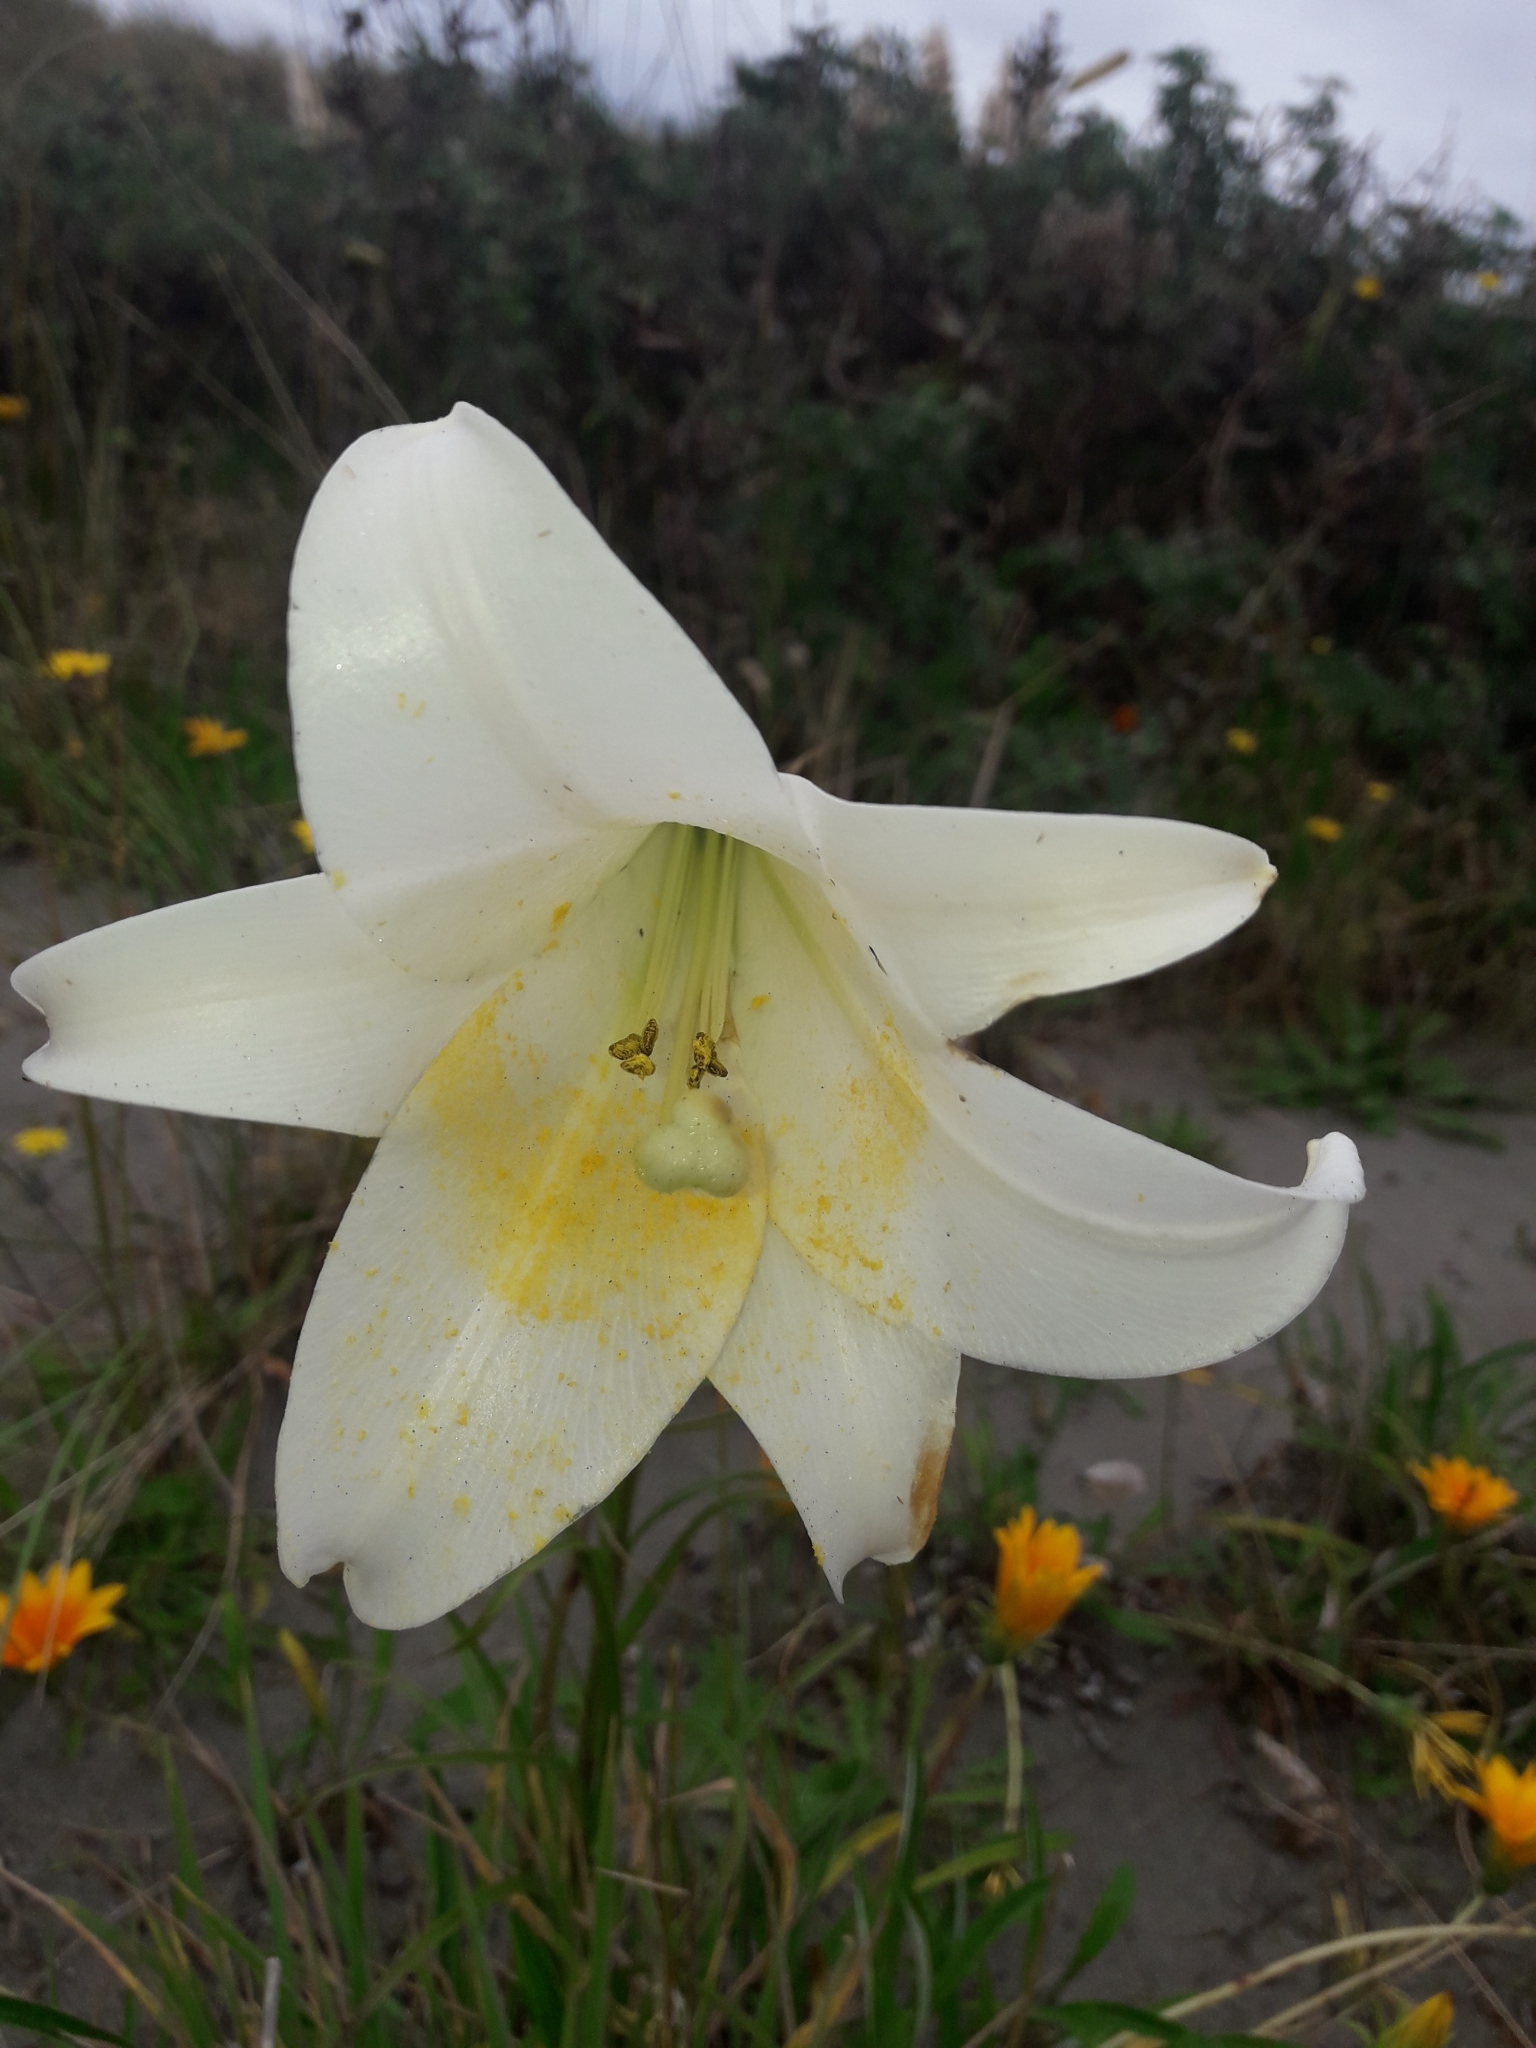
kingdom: Plantae
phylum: Tracheophyta
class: Liliopsida
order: Liliales
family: Liliaceae
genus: Lilium
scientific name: Lilium formosanum
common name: Formosa lily
